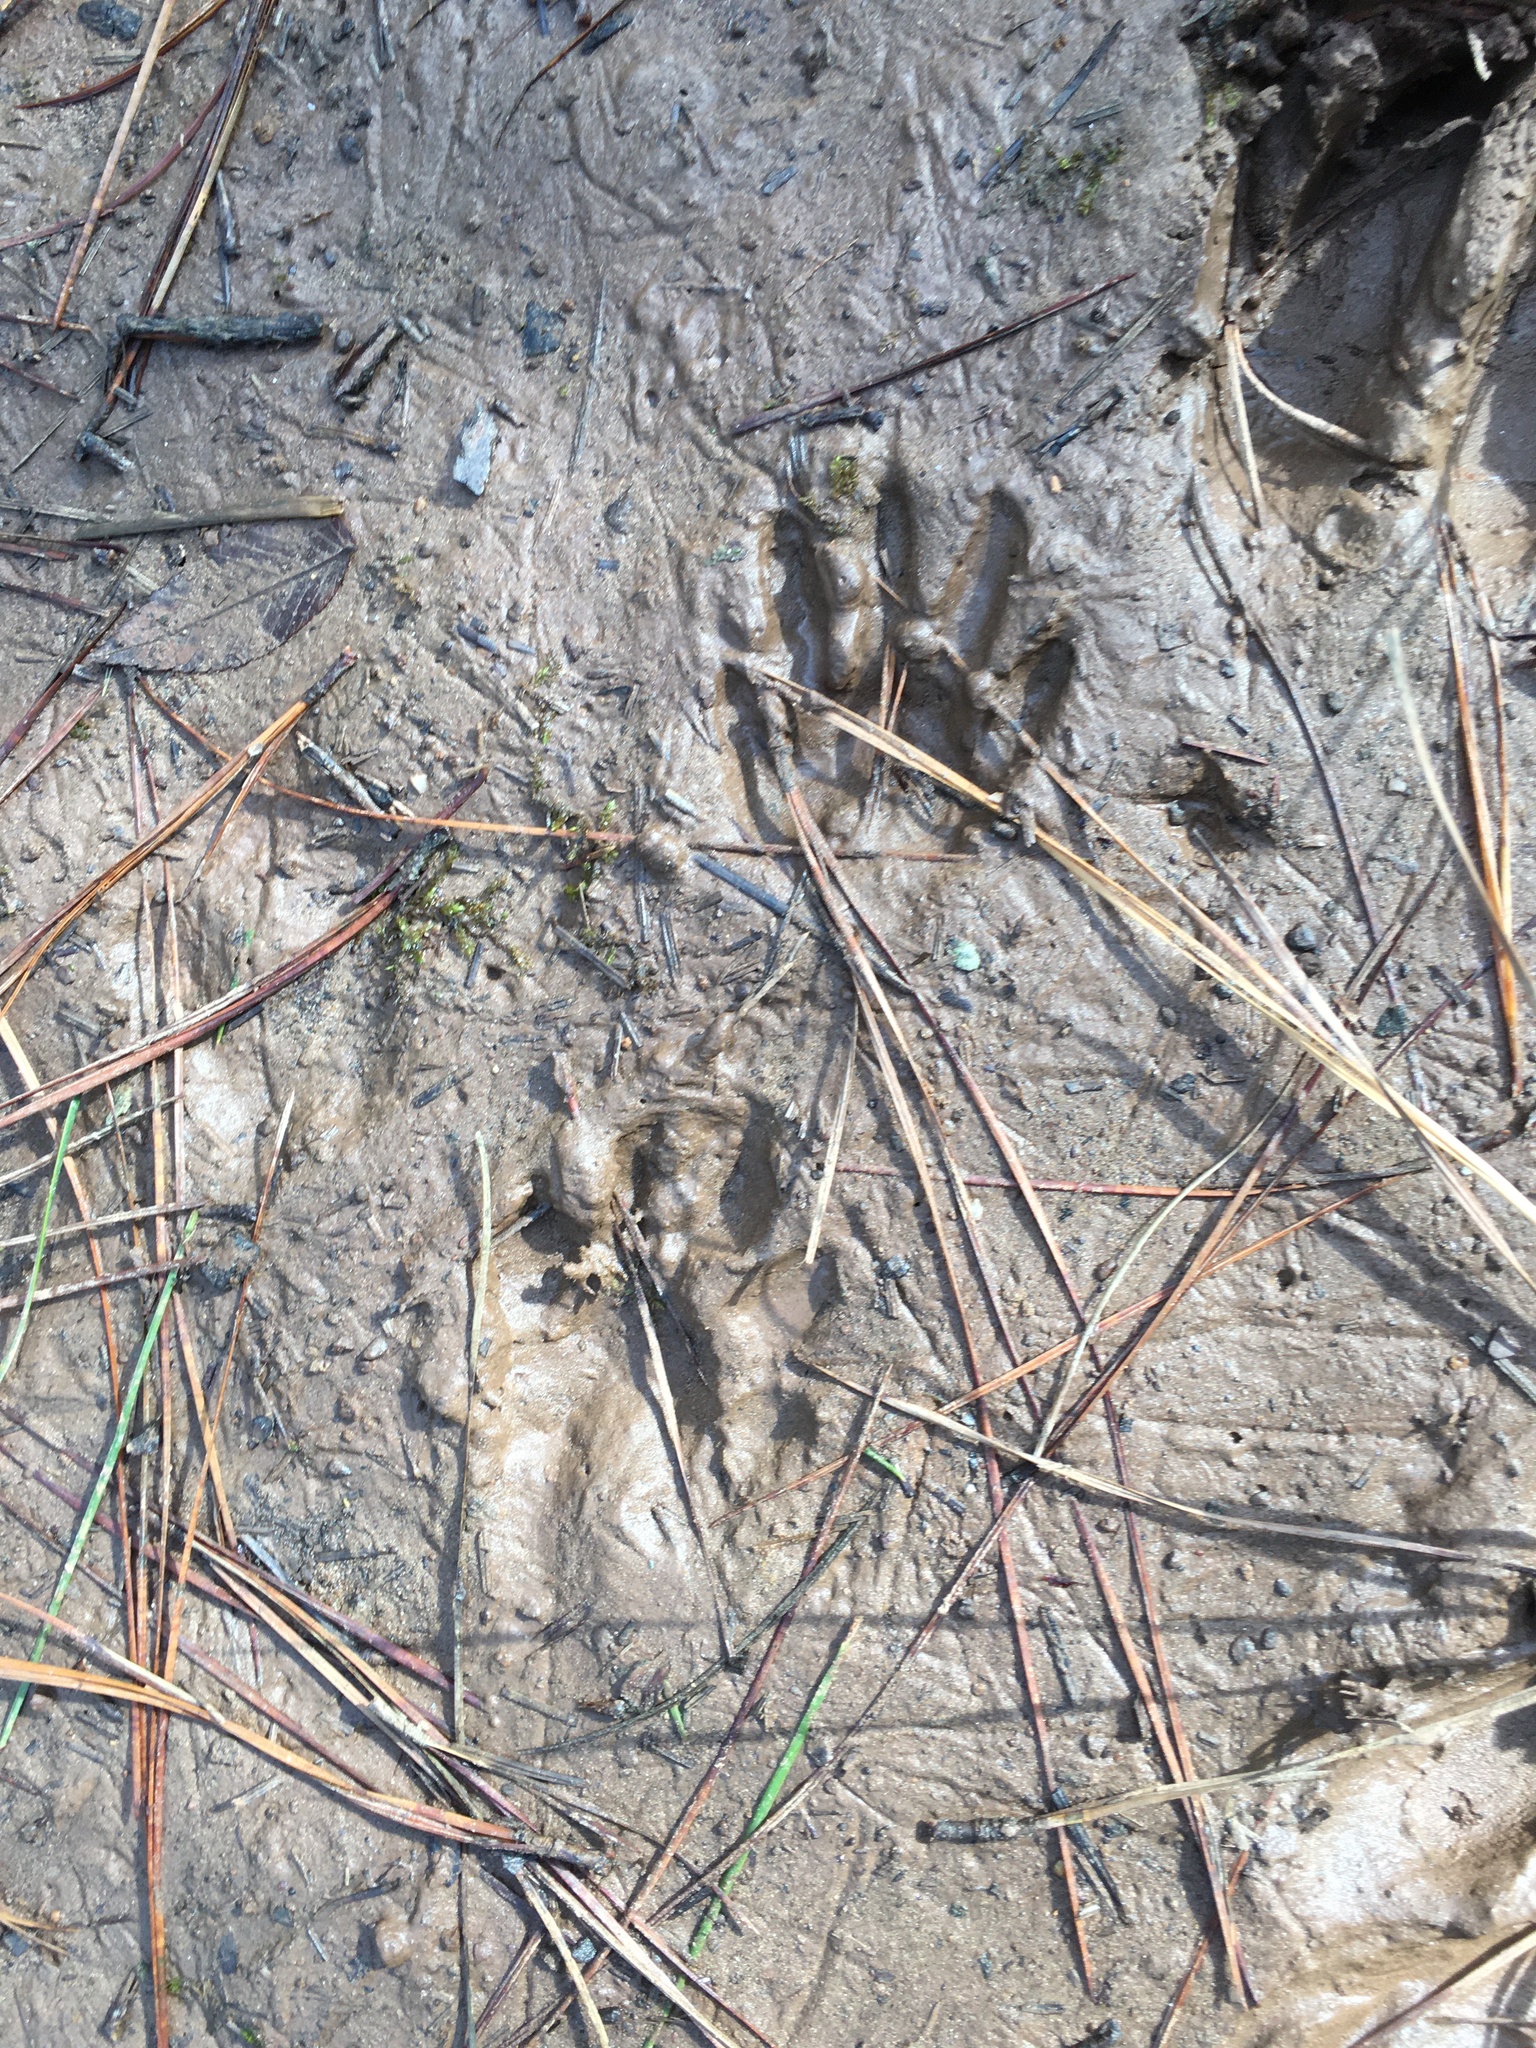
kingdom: Animalia
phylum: Chordata
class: Mammalia
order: Carnivora
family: Procyonidae
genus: Procyon
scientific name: Procyon lotor
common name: Raccoon
